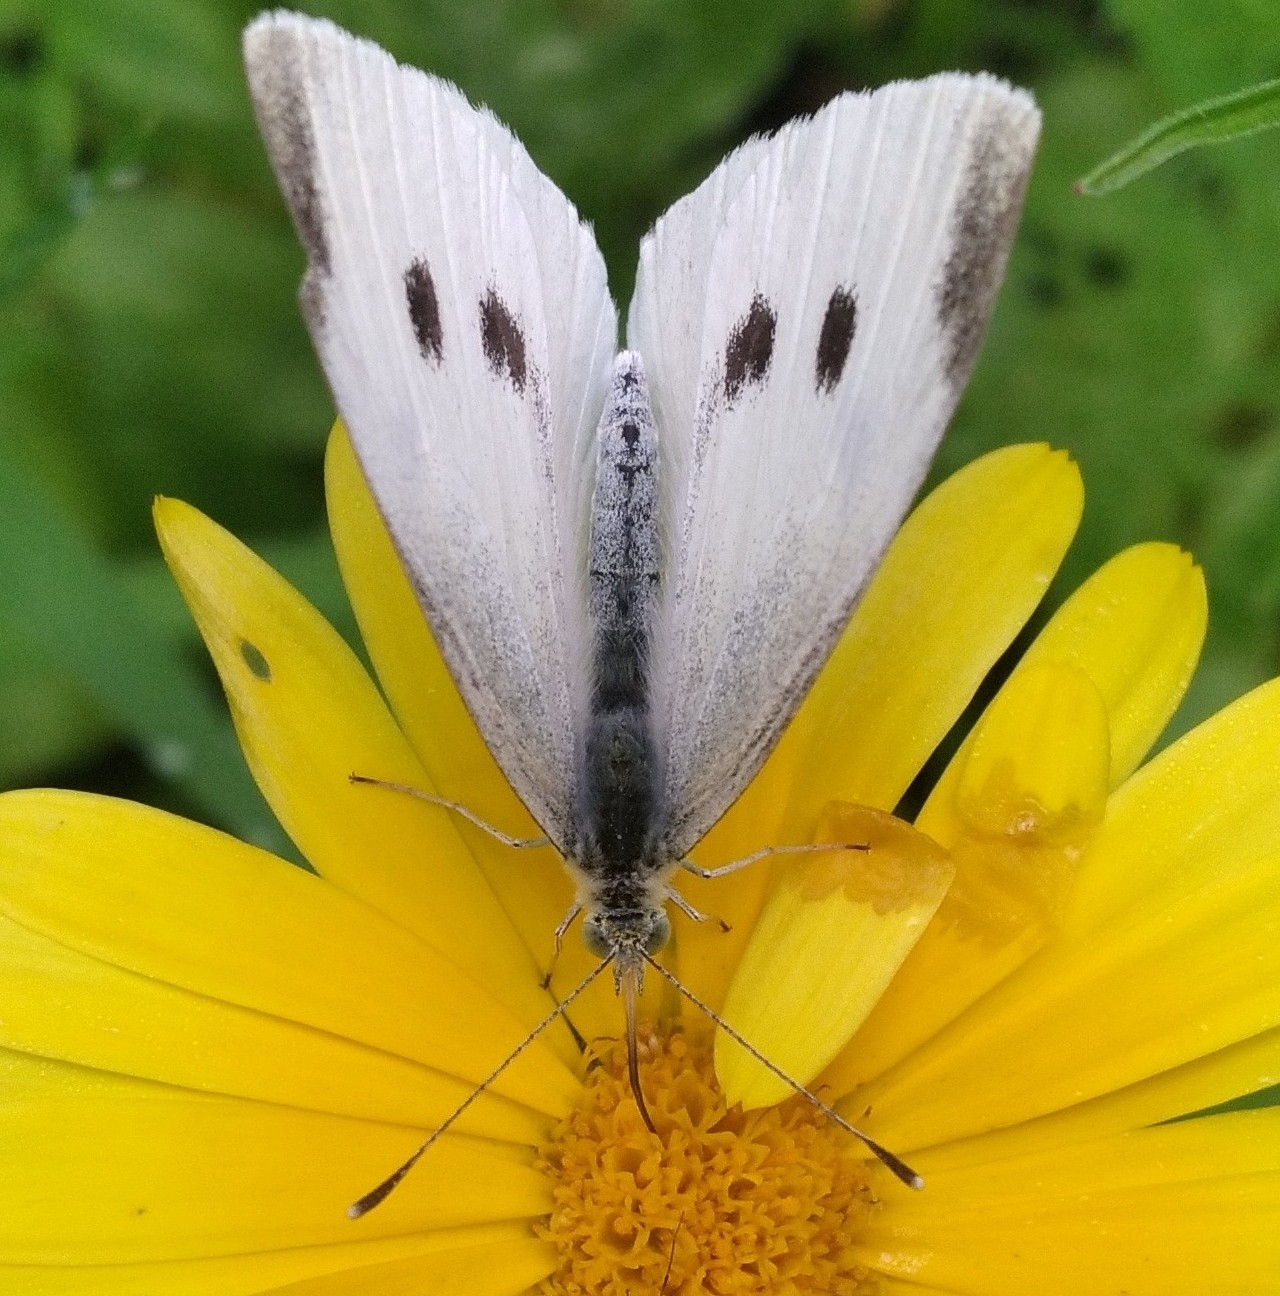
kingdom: Animalia
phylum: Arthropoda
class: Insecta
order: Lepidoptera
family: Pieridae
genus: Pieris
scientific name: Pieris rapae
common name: Small white
